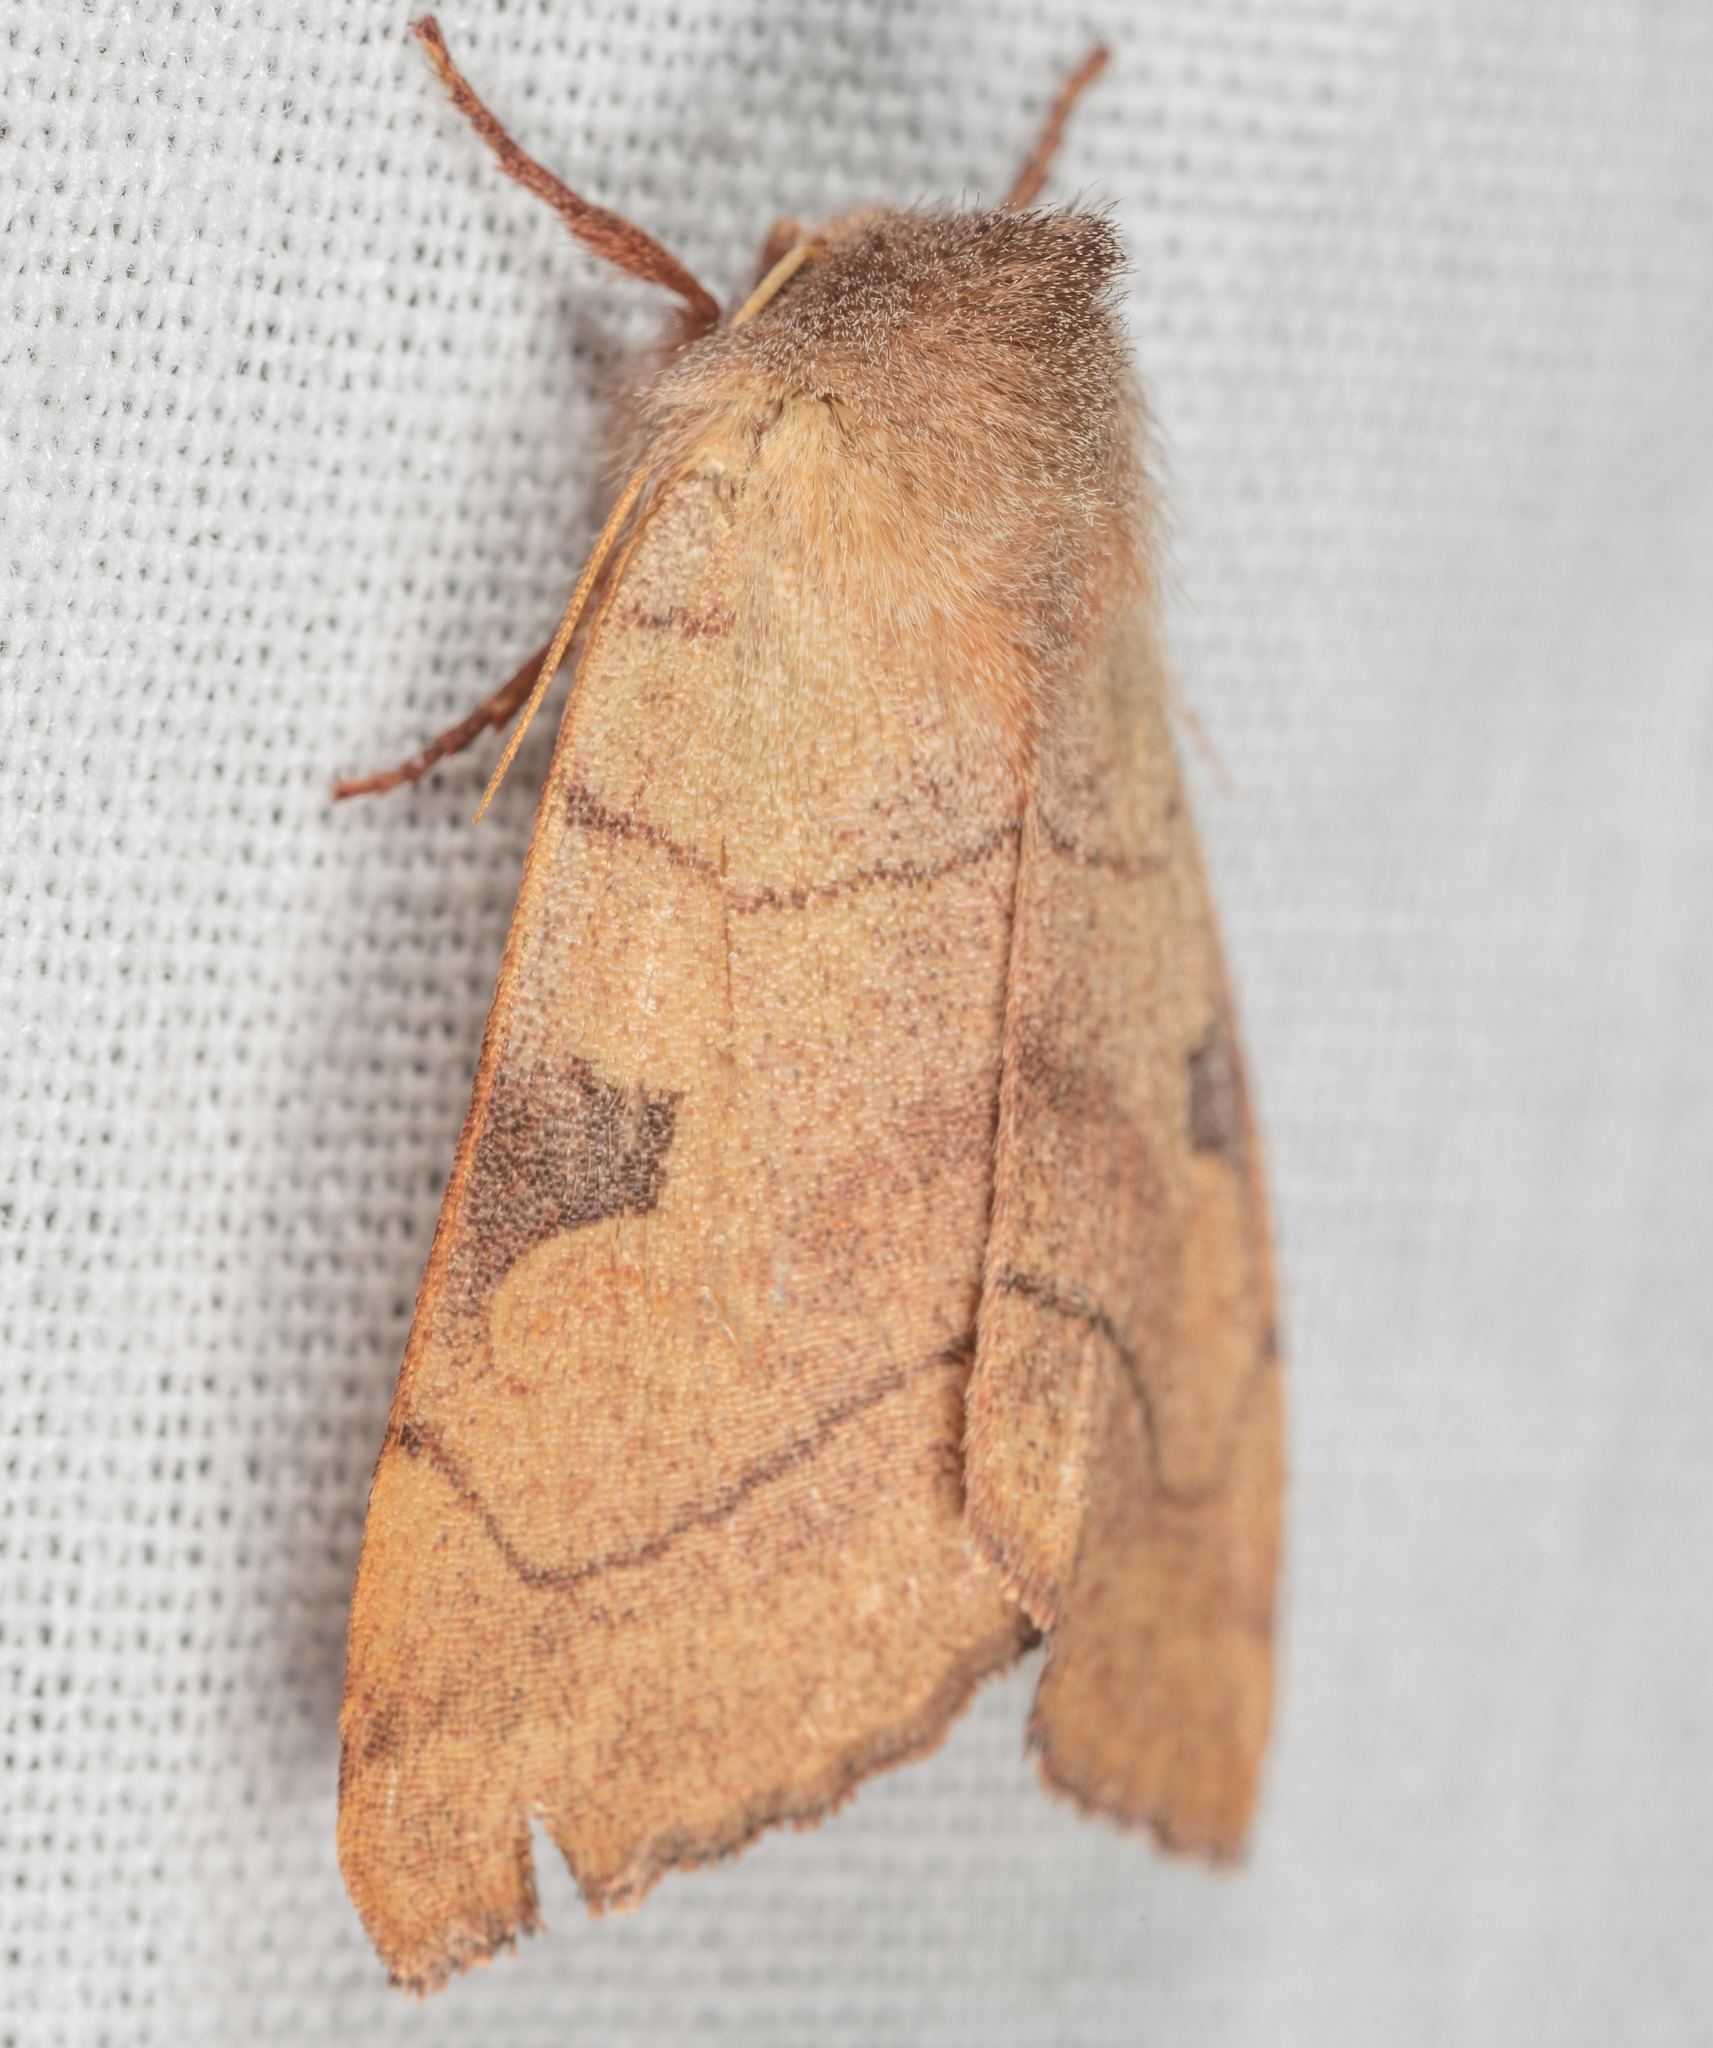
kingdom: Animalia
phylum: Arthropoda
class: Insecta
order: Lepidoptera
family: Noctuidae
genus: Choephora
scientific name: Choephora fungorum
